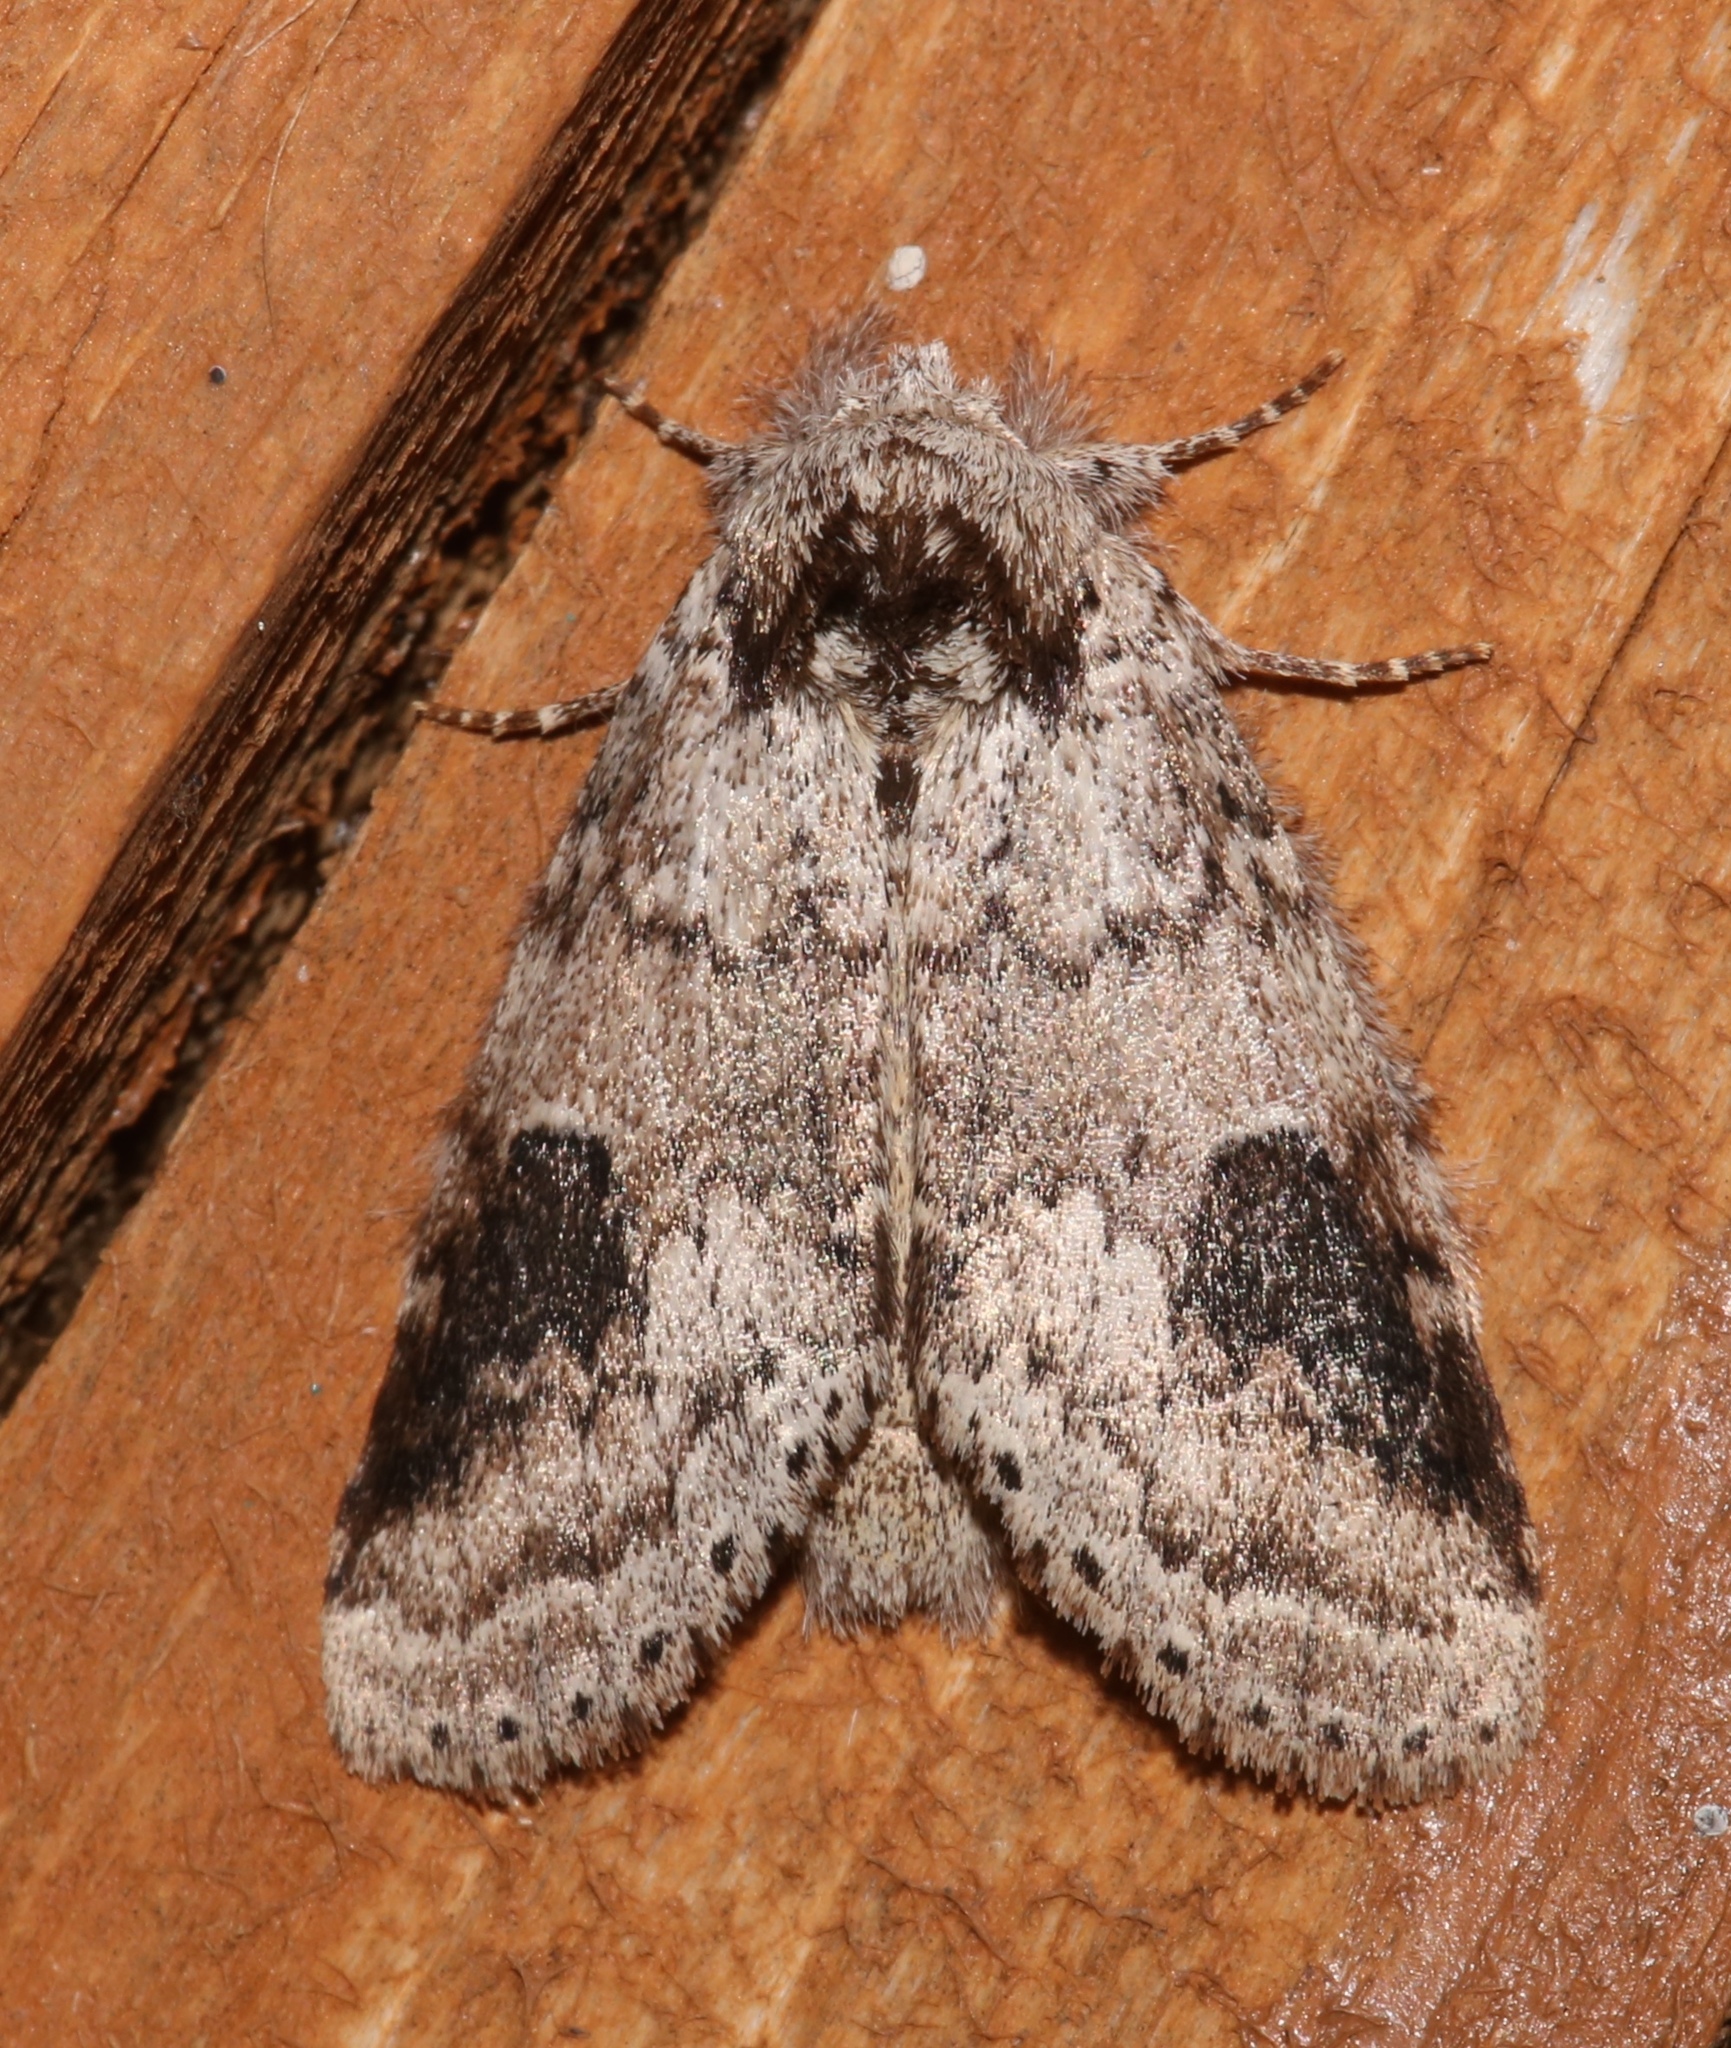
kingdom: Animalia
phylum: Arthropoda
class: Insecta
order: Lepidoptera
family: Notodontidae
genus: Lochmaeus
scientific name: Lochmaeus manteo
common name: Variable oakleaf caterpillar moth
